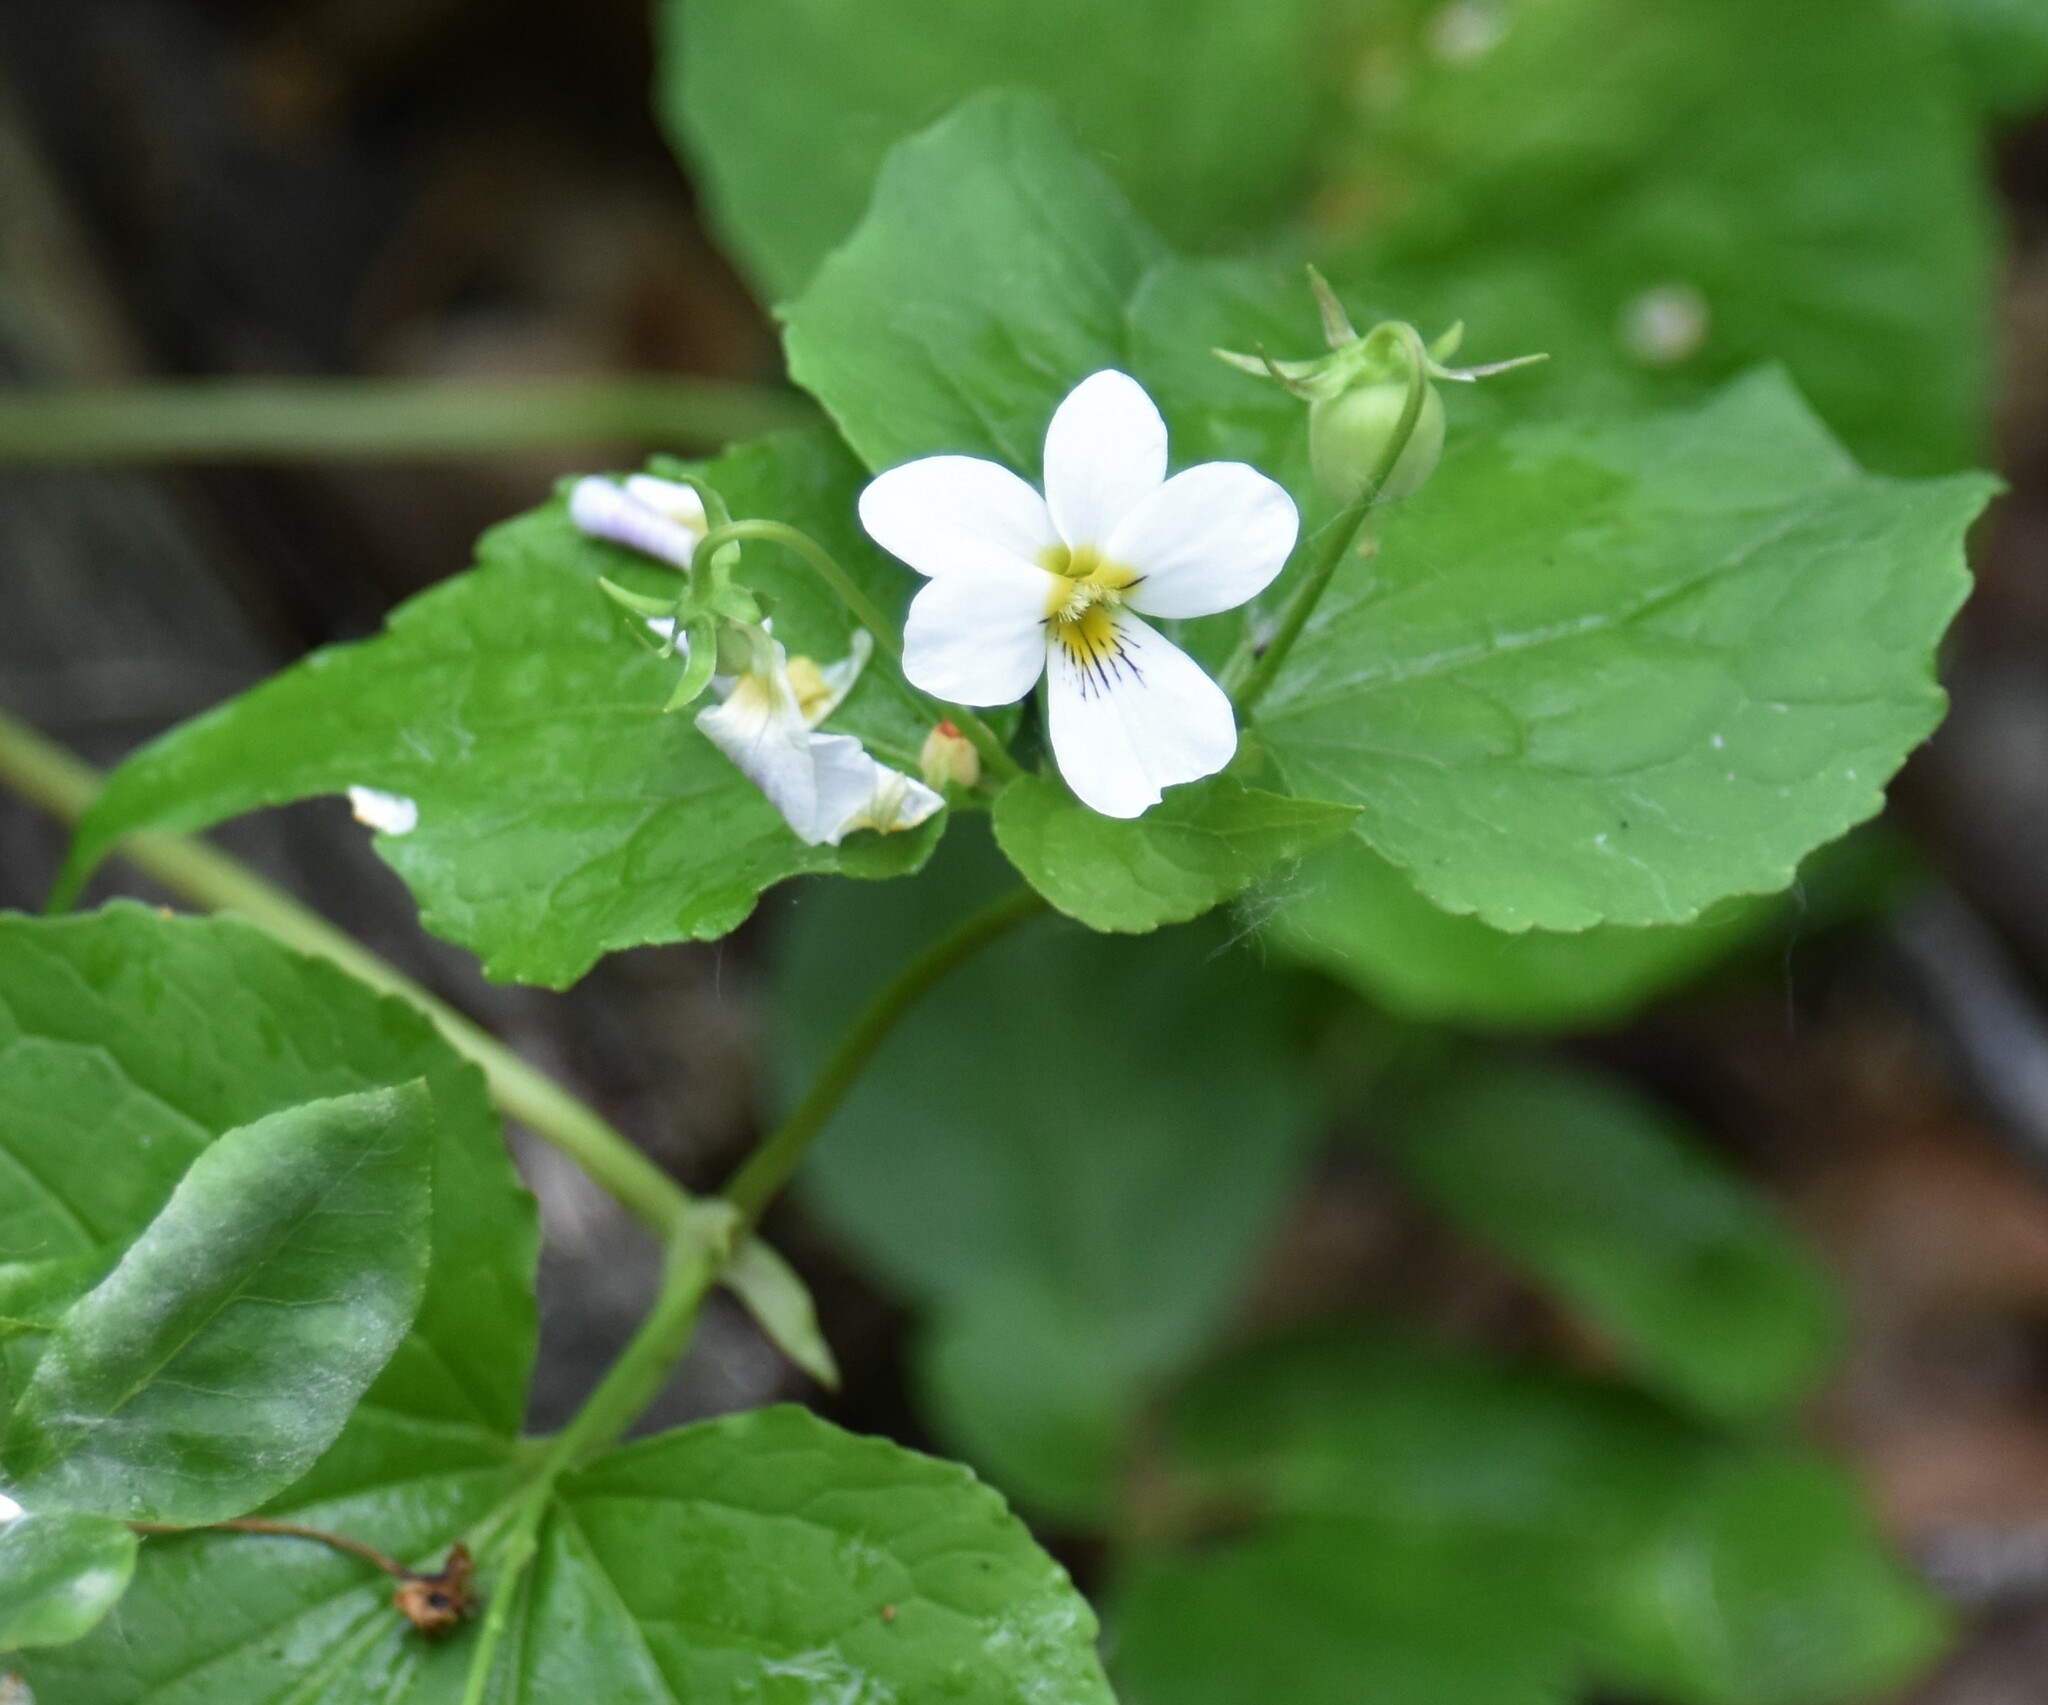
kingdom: Plantae
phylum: Tracheophyta
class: Magnoliopsida
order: Malpighiales
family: Violaceae
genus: Viola
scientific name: Viola canadensis
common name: Canada violet
